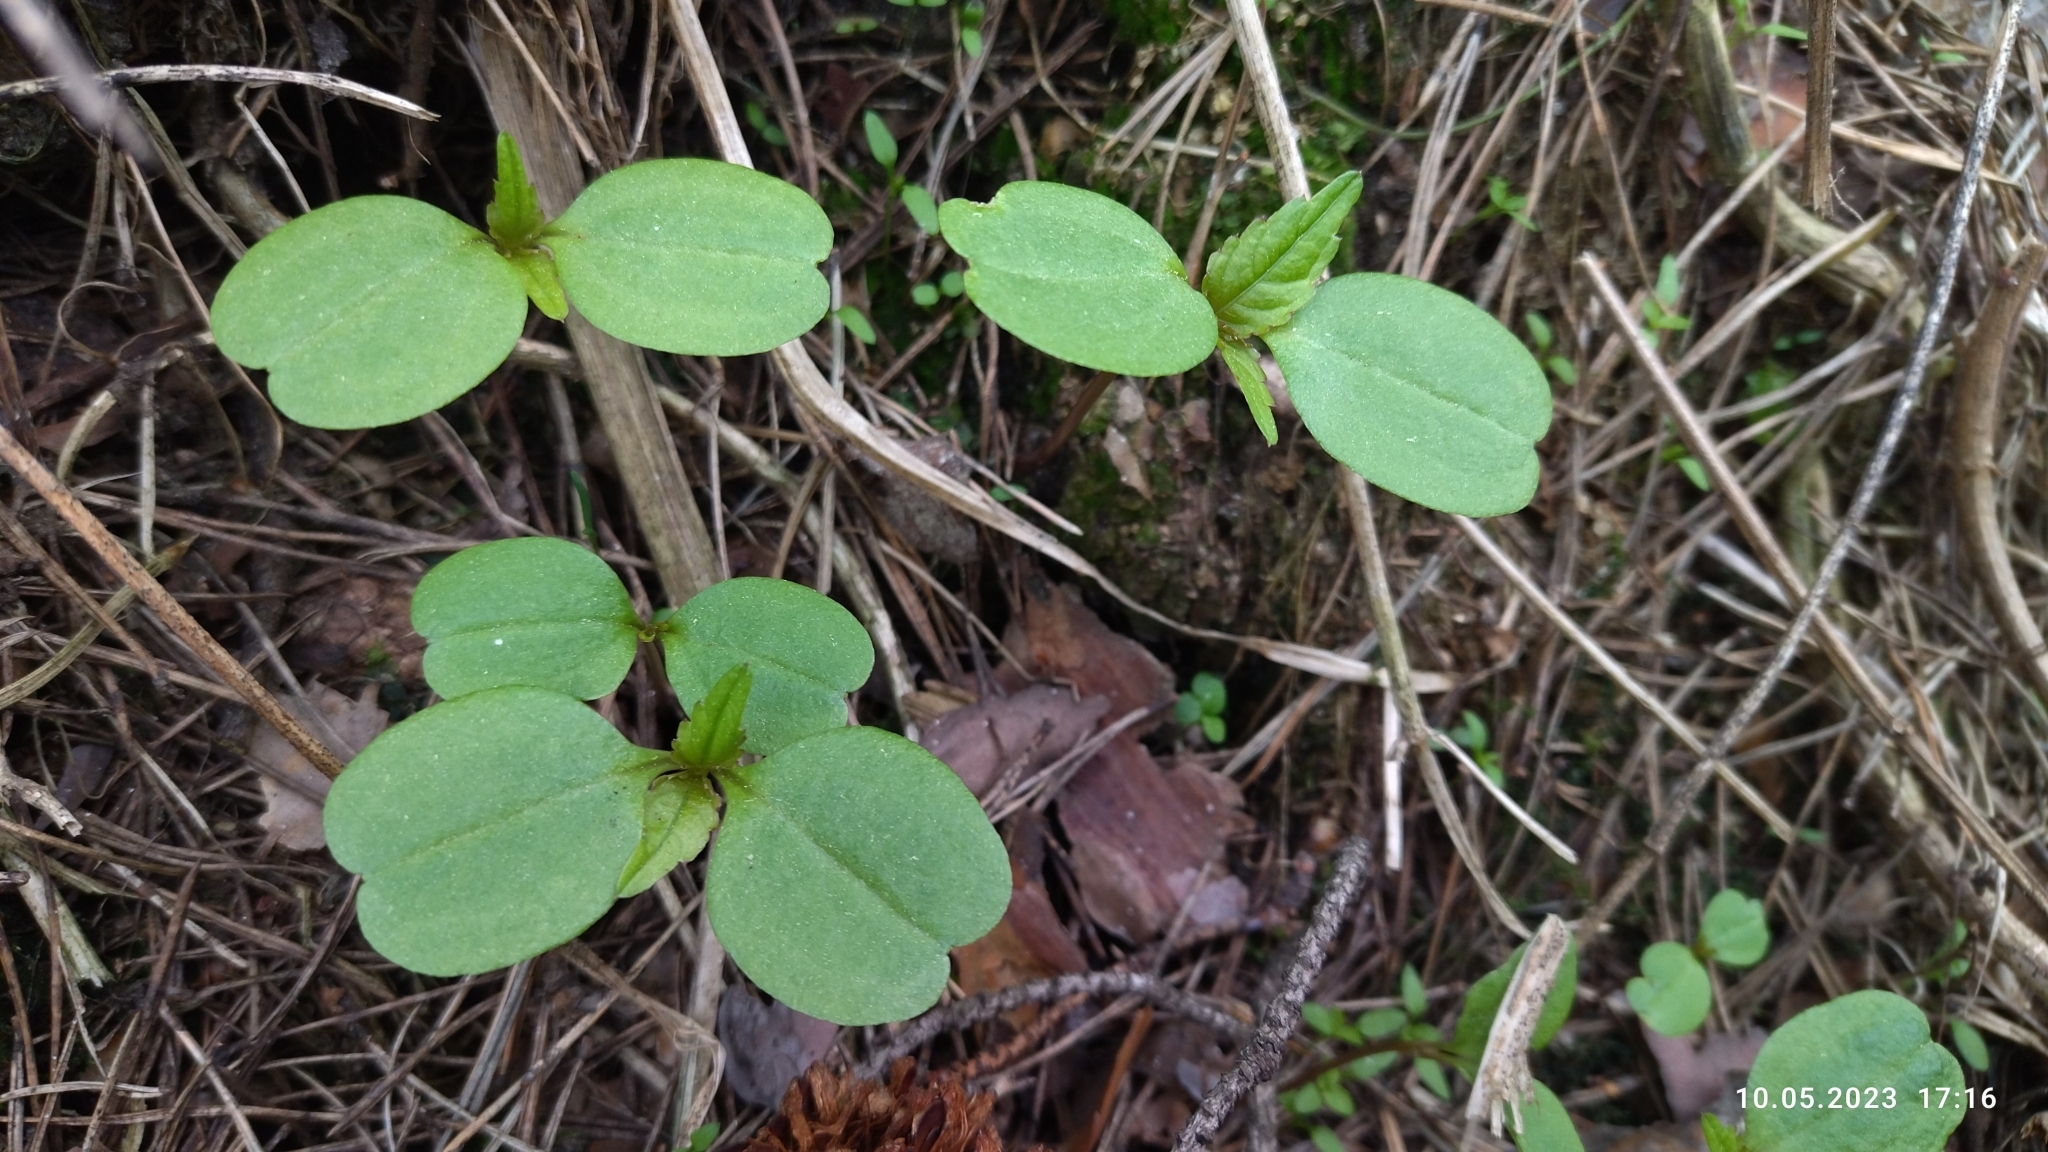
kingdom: Plantae
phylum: Tracheophyta
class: Magnoliopsida
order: Ericales
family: Balsaminaceae
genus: Impatiens
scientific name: Impatiens parviflora
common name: Small balsam
